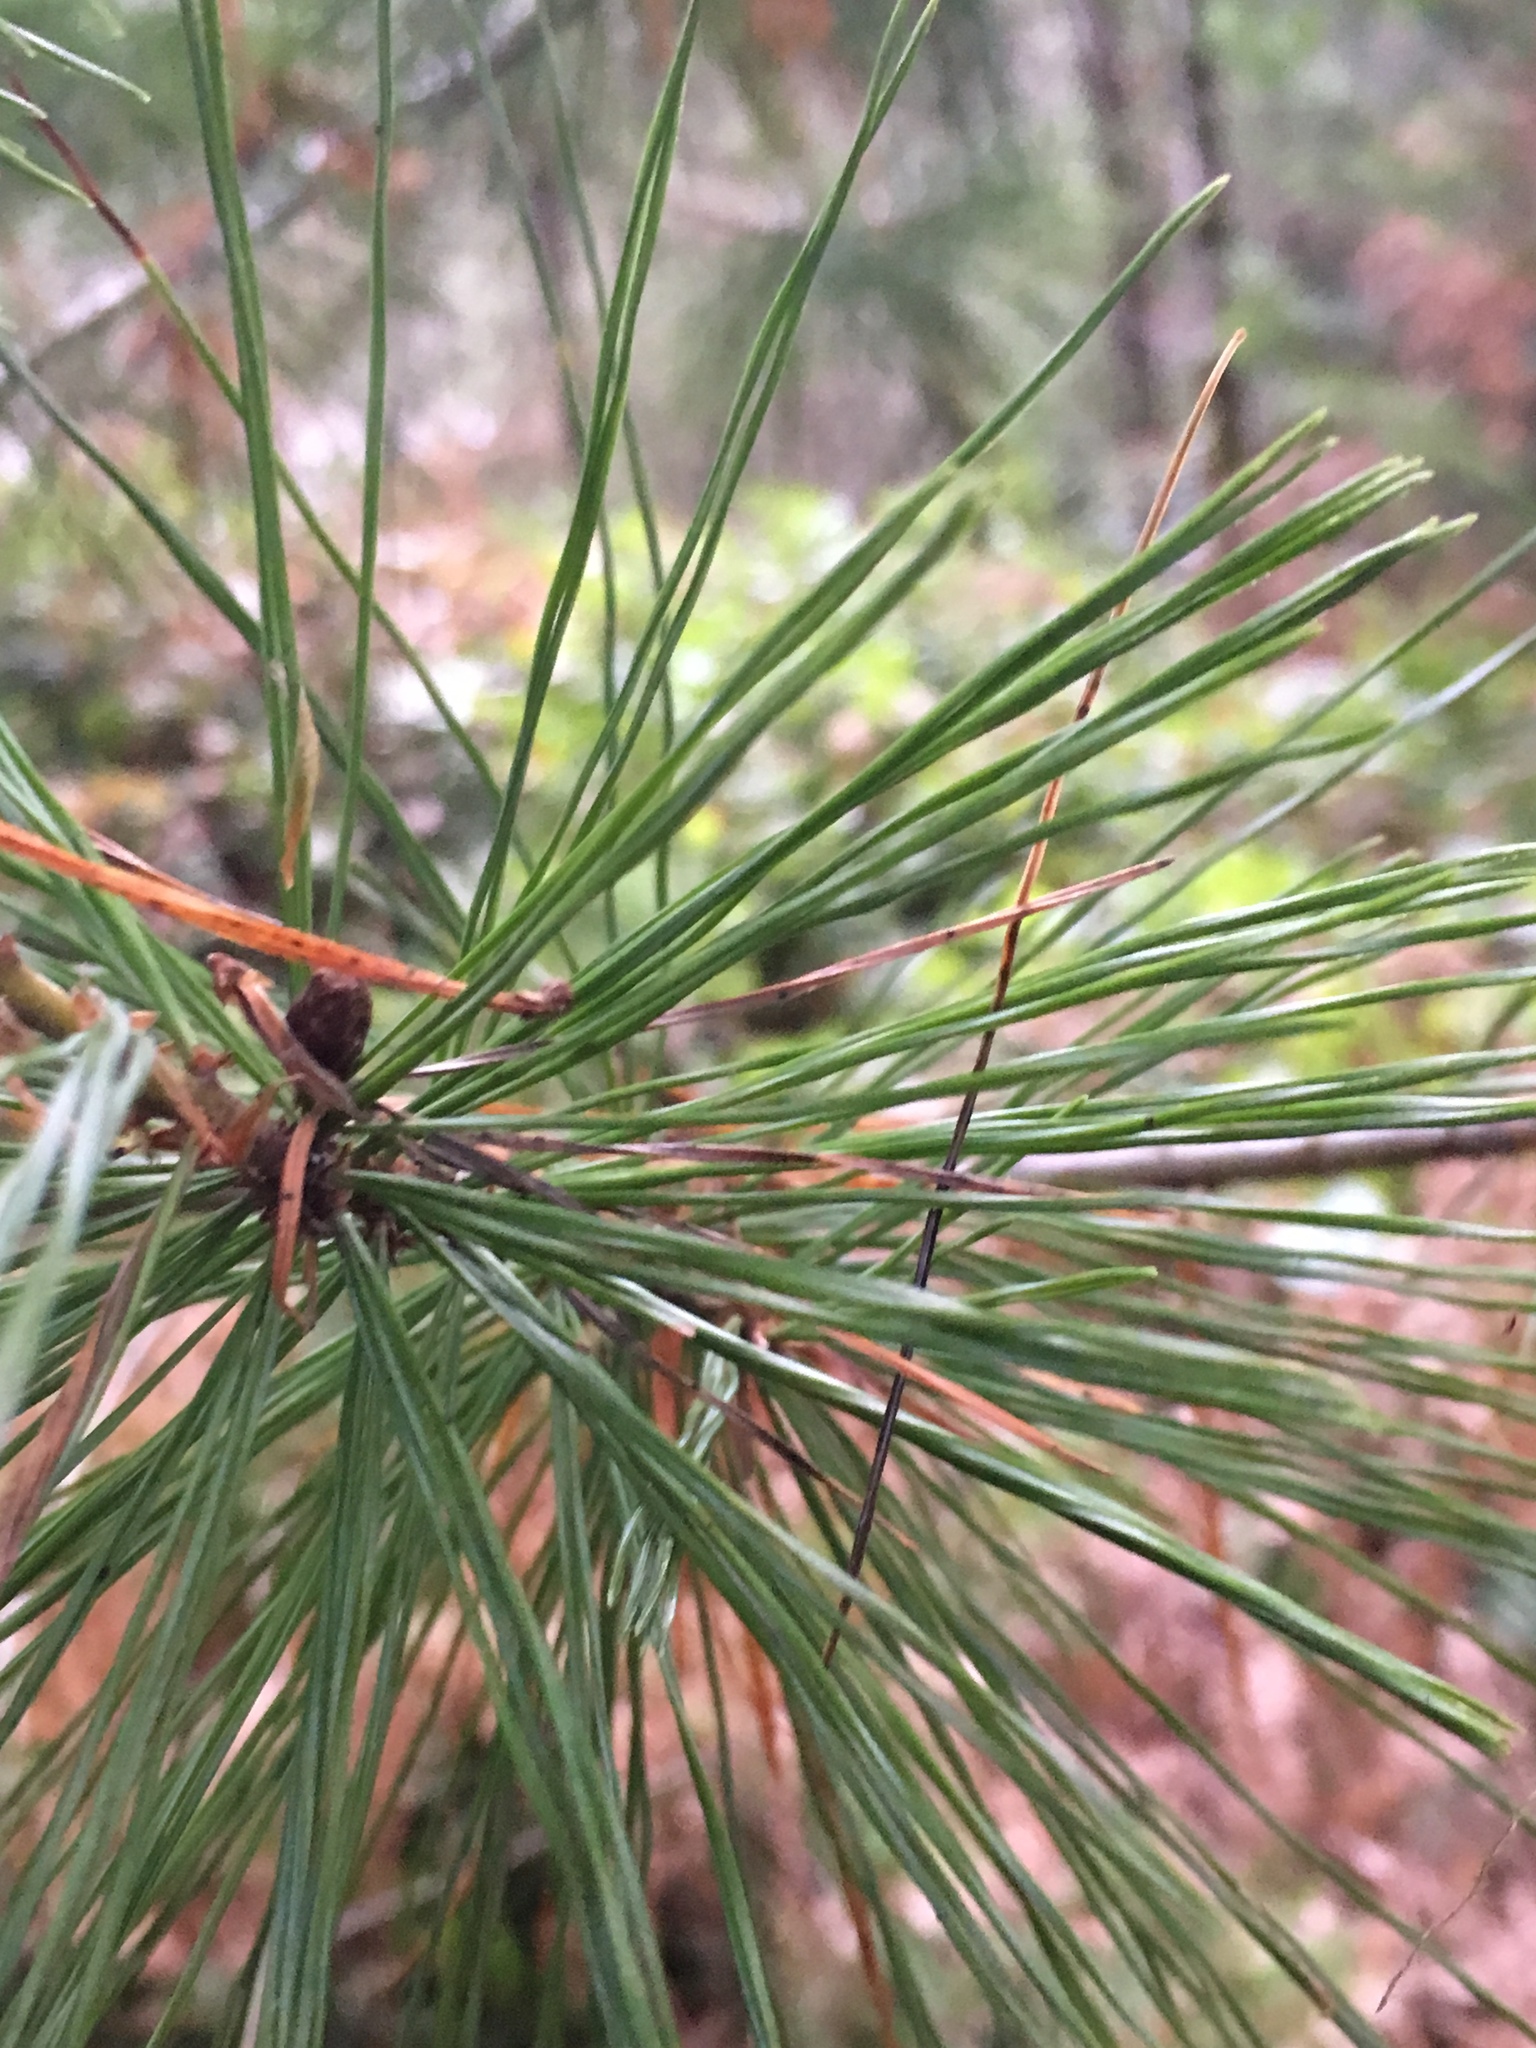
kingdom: Plantae
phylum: Tracheophyta
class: Pinopsida
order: Pinales
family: Pinaceae
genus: Pinus
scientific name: Pinus monticola
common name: Western white pine
